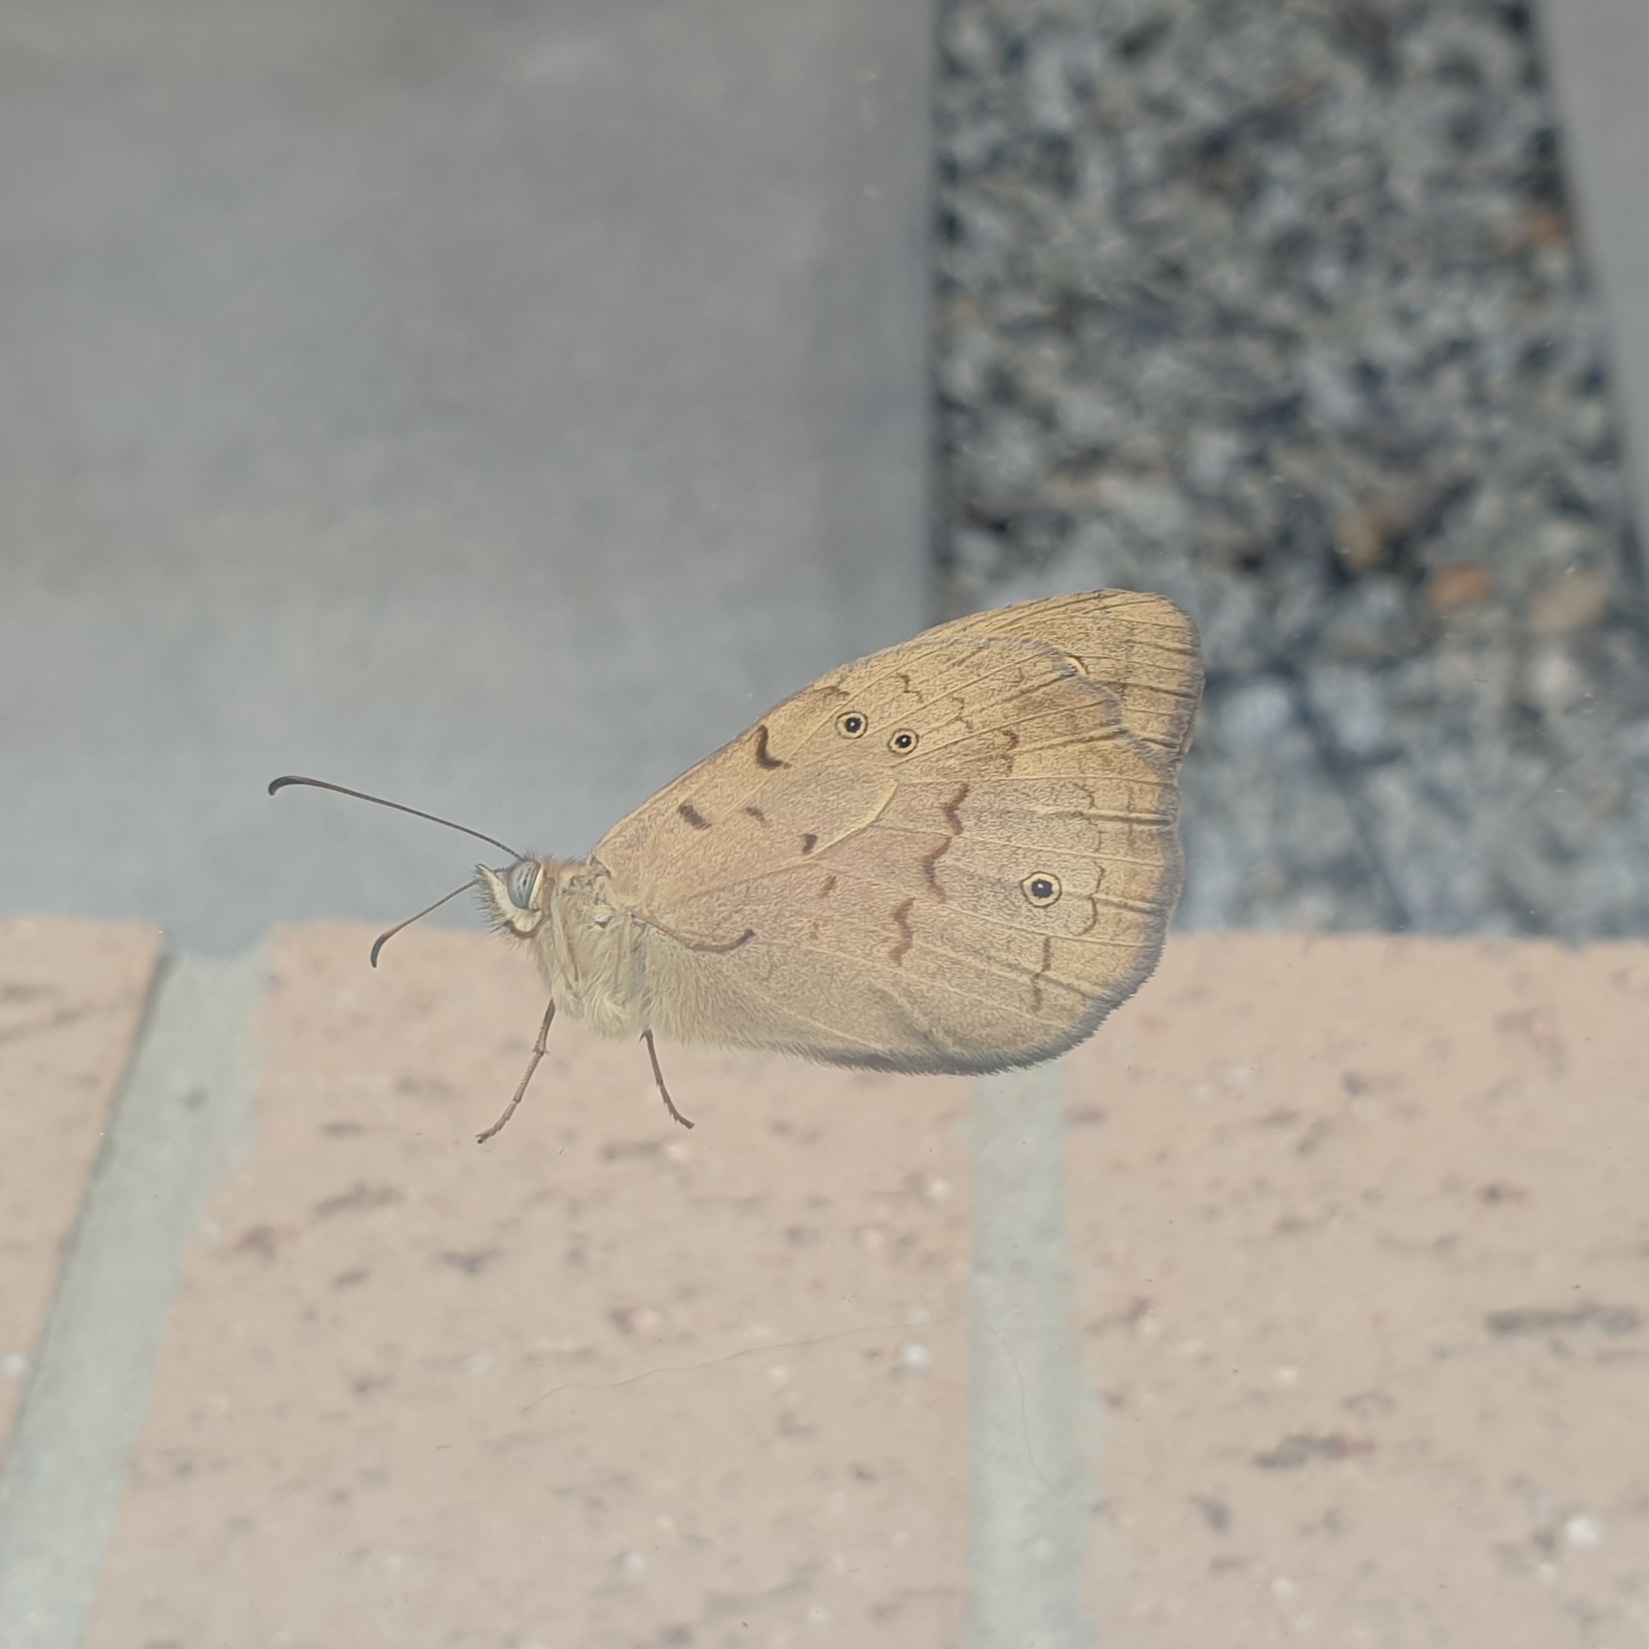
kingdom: Animalia
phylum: Arthropoda
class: Insecta
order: Lepidoptera
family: Nymphalidae
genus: Heteronympha
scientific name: Heteronympha merope
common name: Common brown
